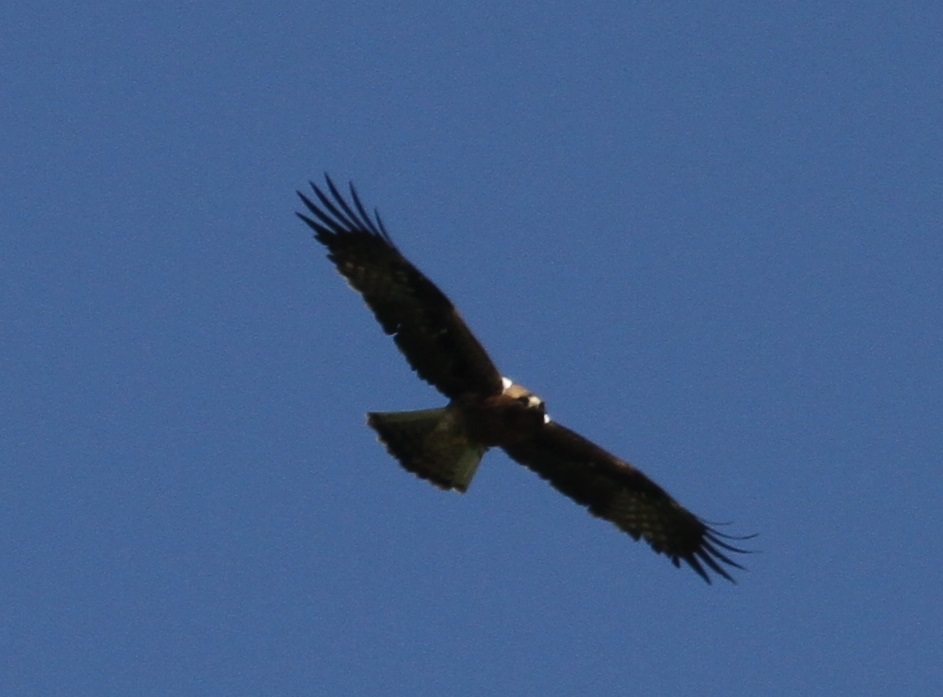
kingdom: Animalia
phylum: Chordata
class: Aves
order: Accipitriformes
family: Accipitridae
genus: Hieraaetus
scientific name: Hieraaetus pennatus
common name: Booted eagle
